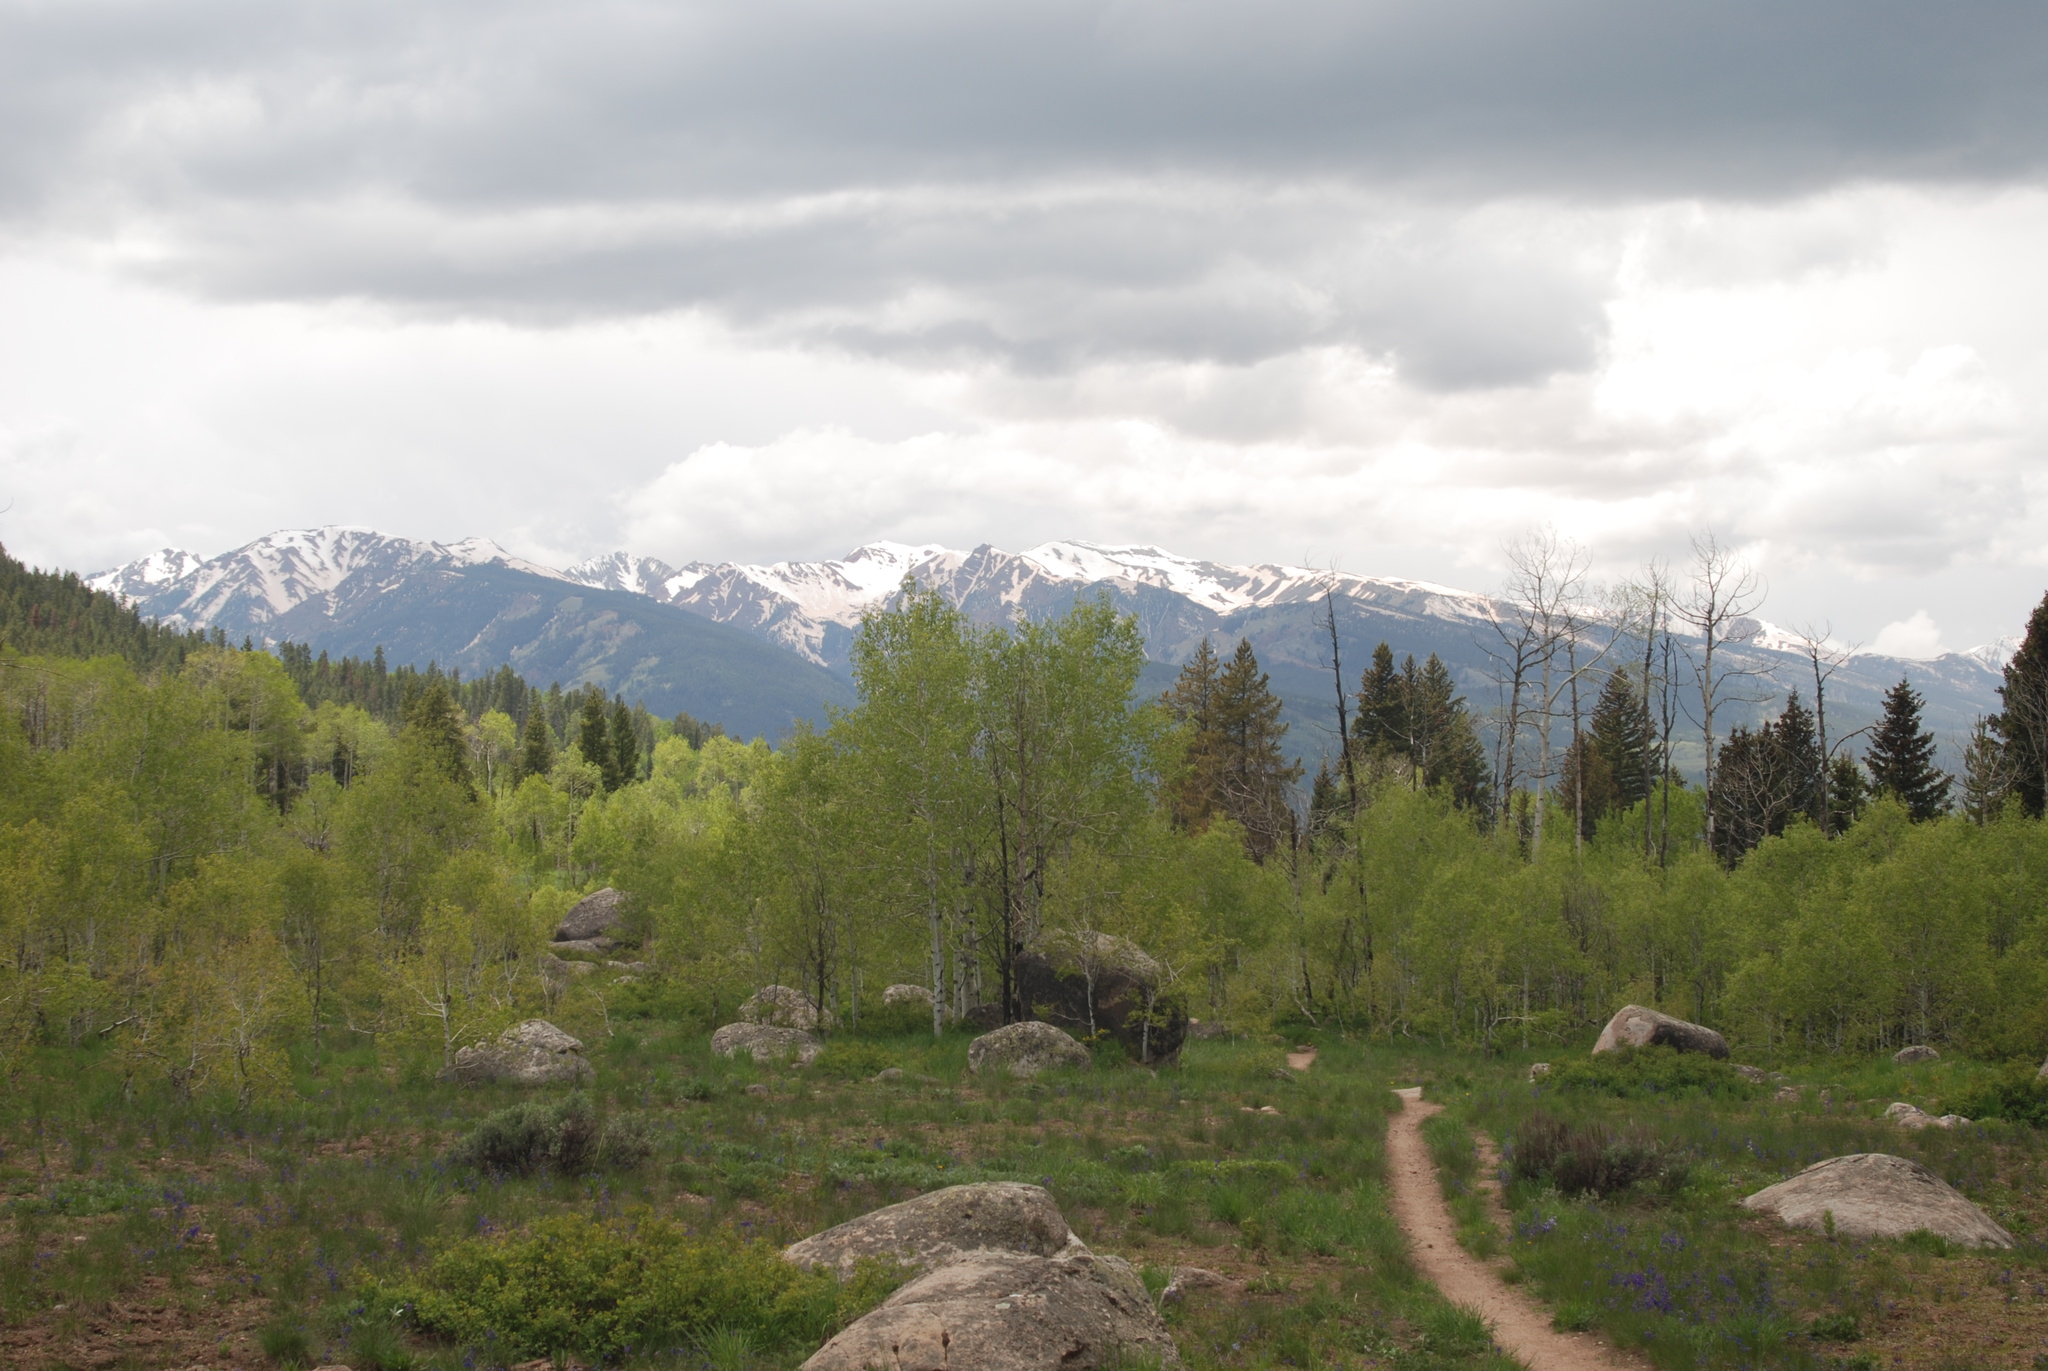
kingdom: Plantae
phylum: Tracheophyta
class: Magnoliopsida
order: Malpighiales
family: Salicaceae
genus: Populus
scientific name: Populus tremuloides
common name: Quaking aspen
